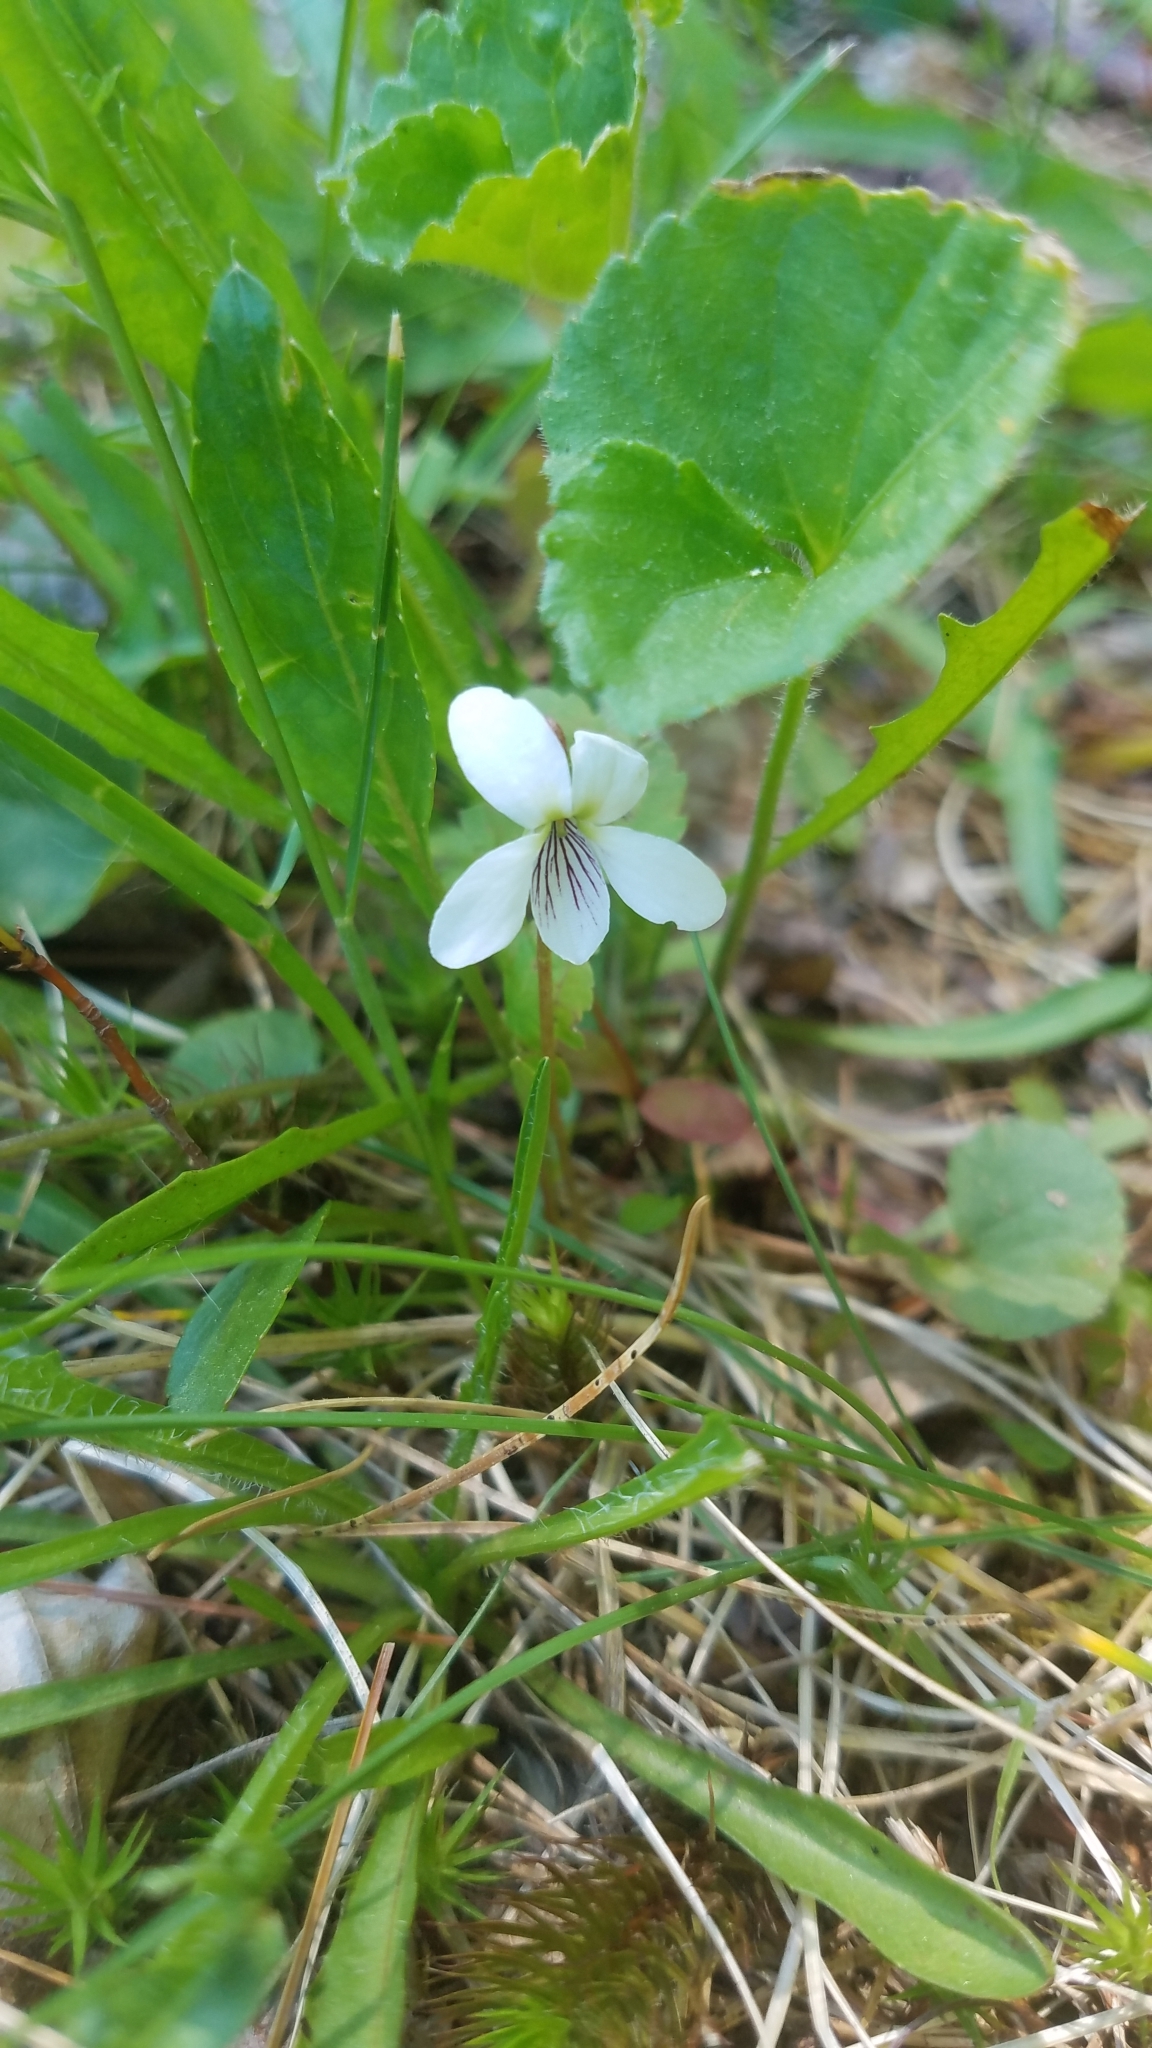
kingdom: Plantae
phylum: Tracheophyta
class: Magnoliopsida
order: Malpighiales
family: Violaceae
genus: Viola
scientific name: Viola renifolia
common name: Kidney-leaf violet
